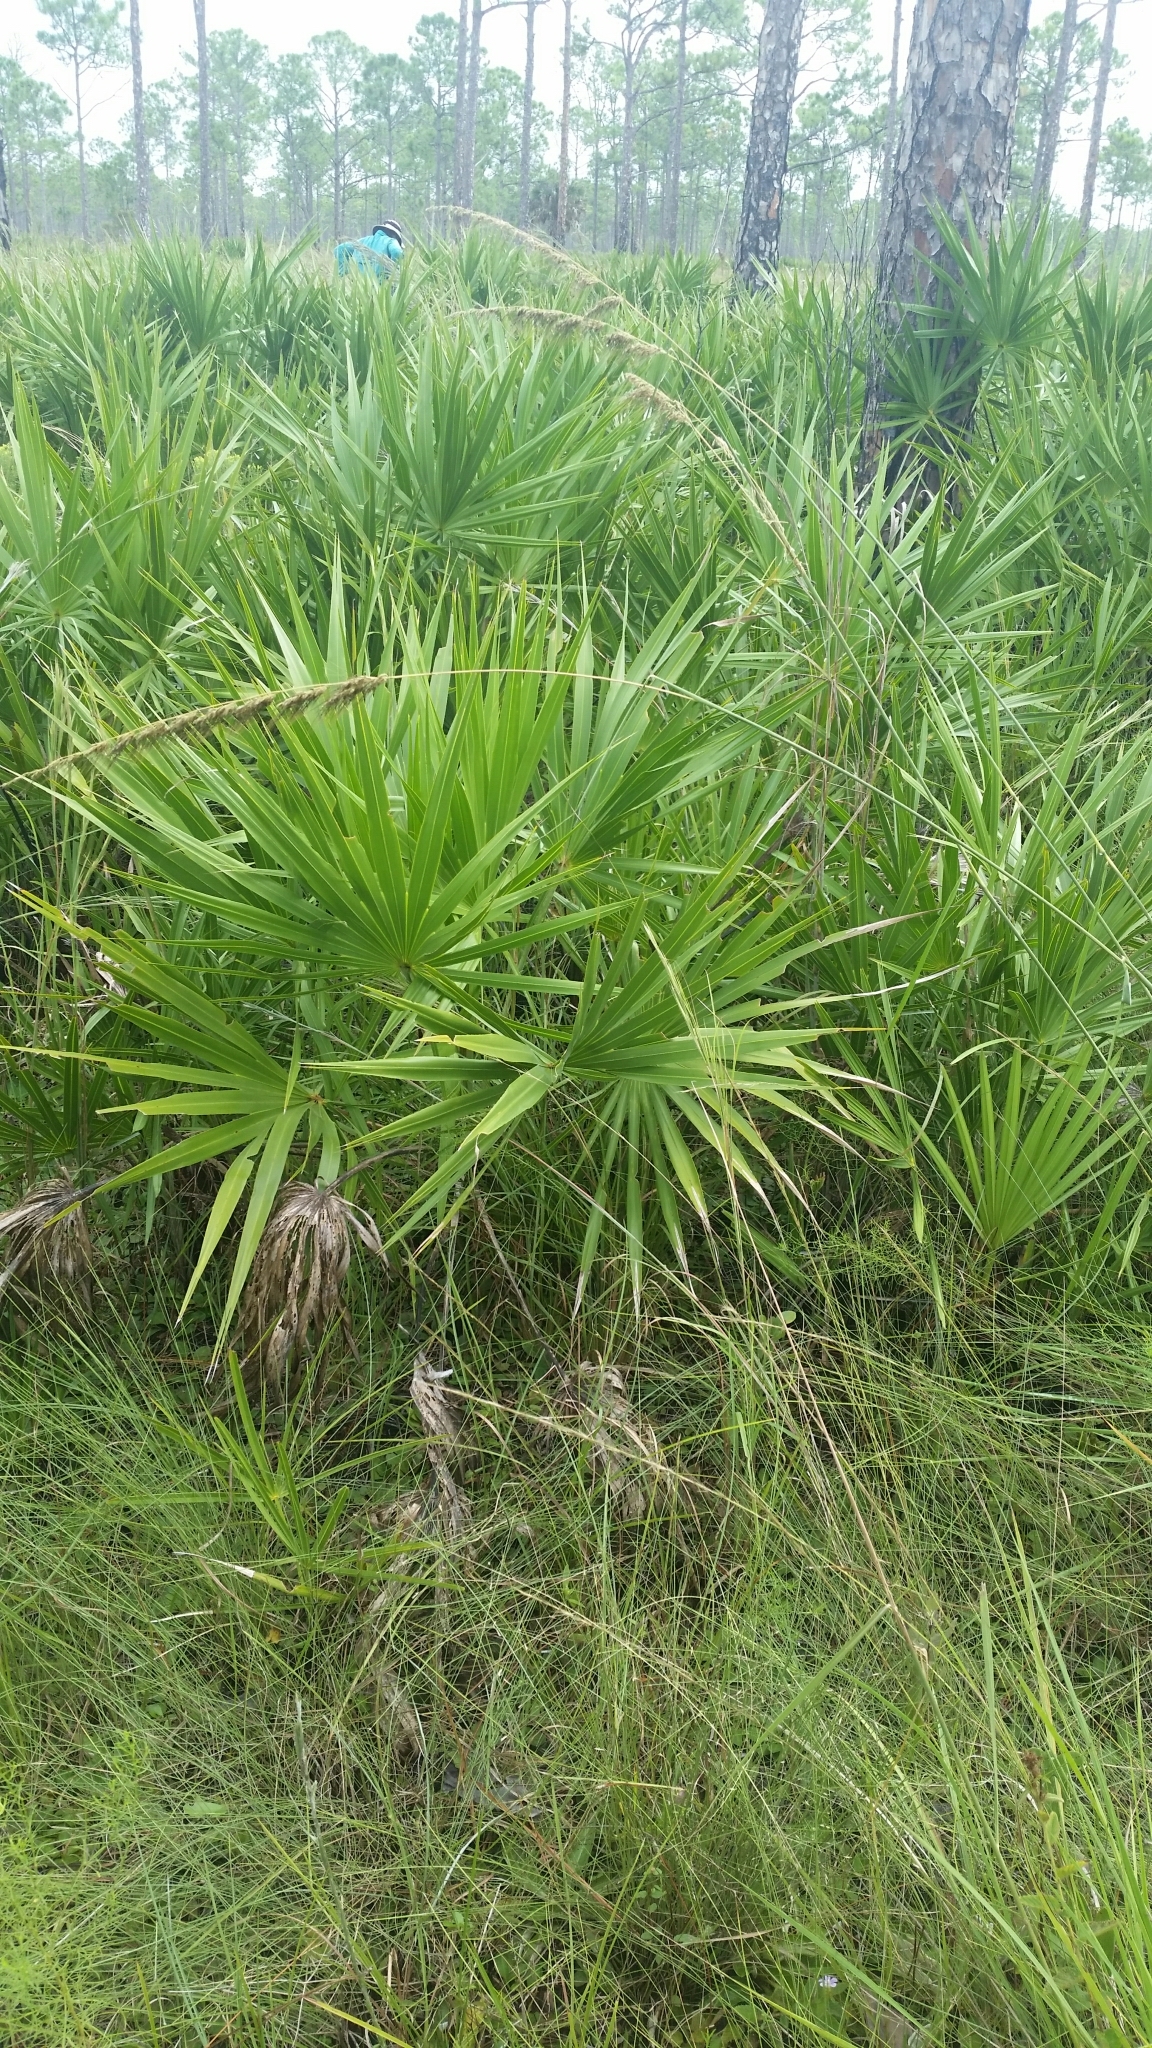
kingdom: Plantae
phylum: Tracheophyta
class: Liliopsida
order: Poales
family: Poaceae
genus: Sorghastrum
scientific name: Sorghastrum secundum
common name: Lopsided indian grass
